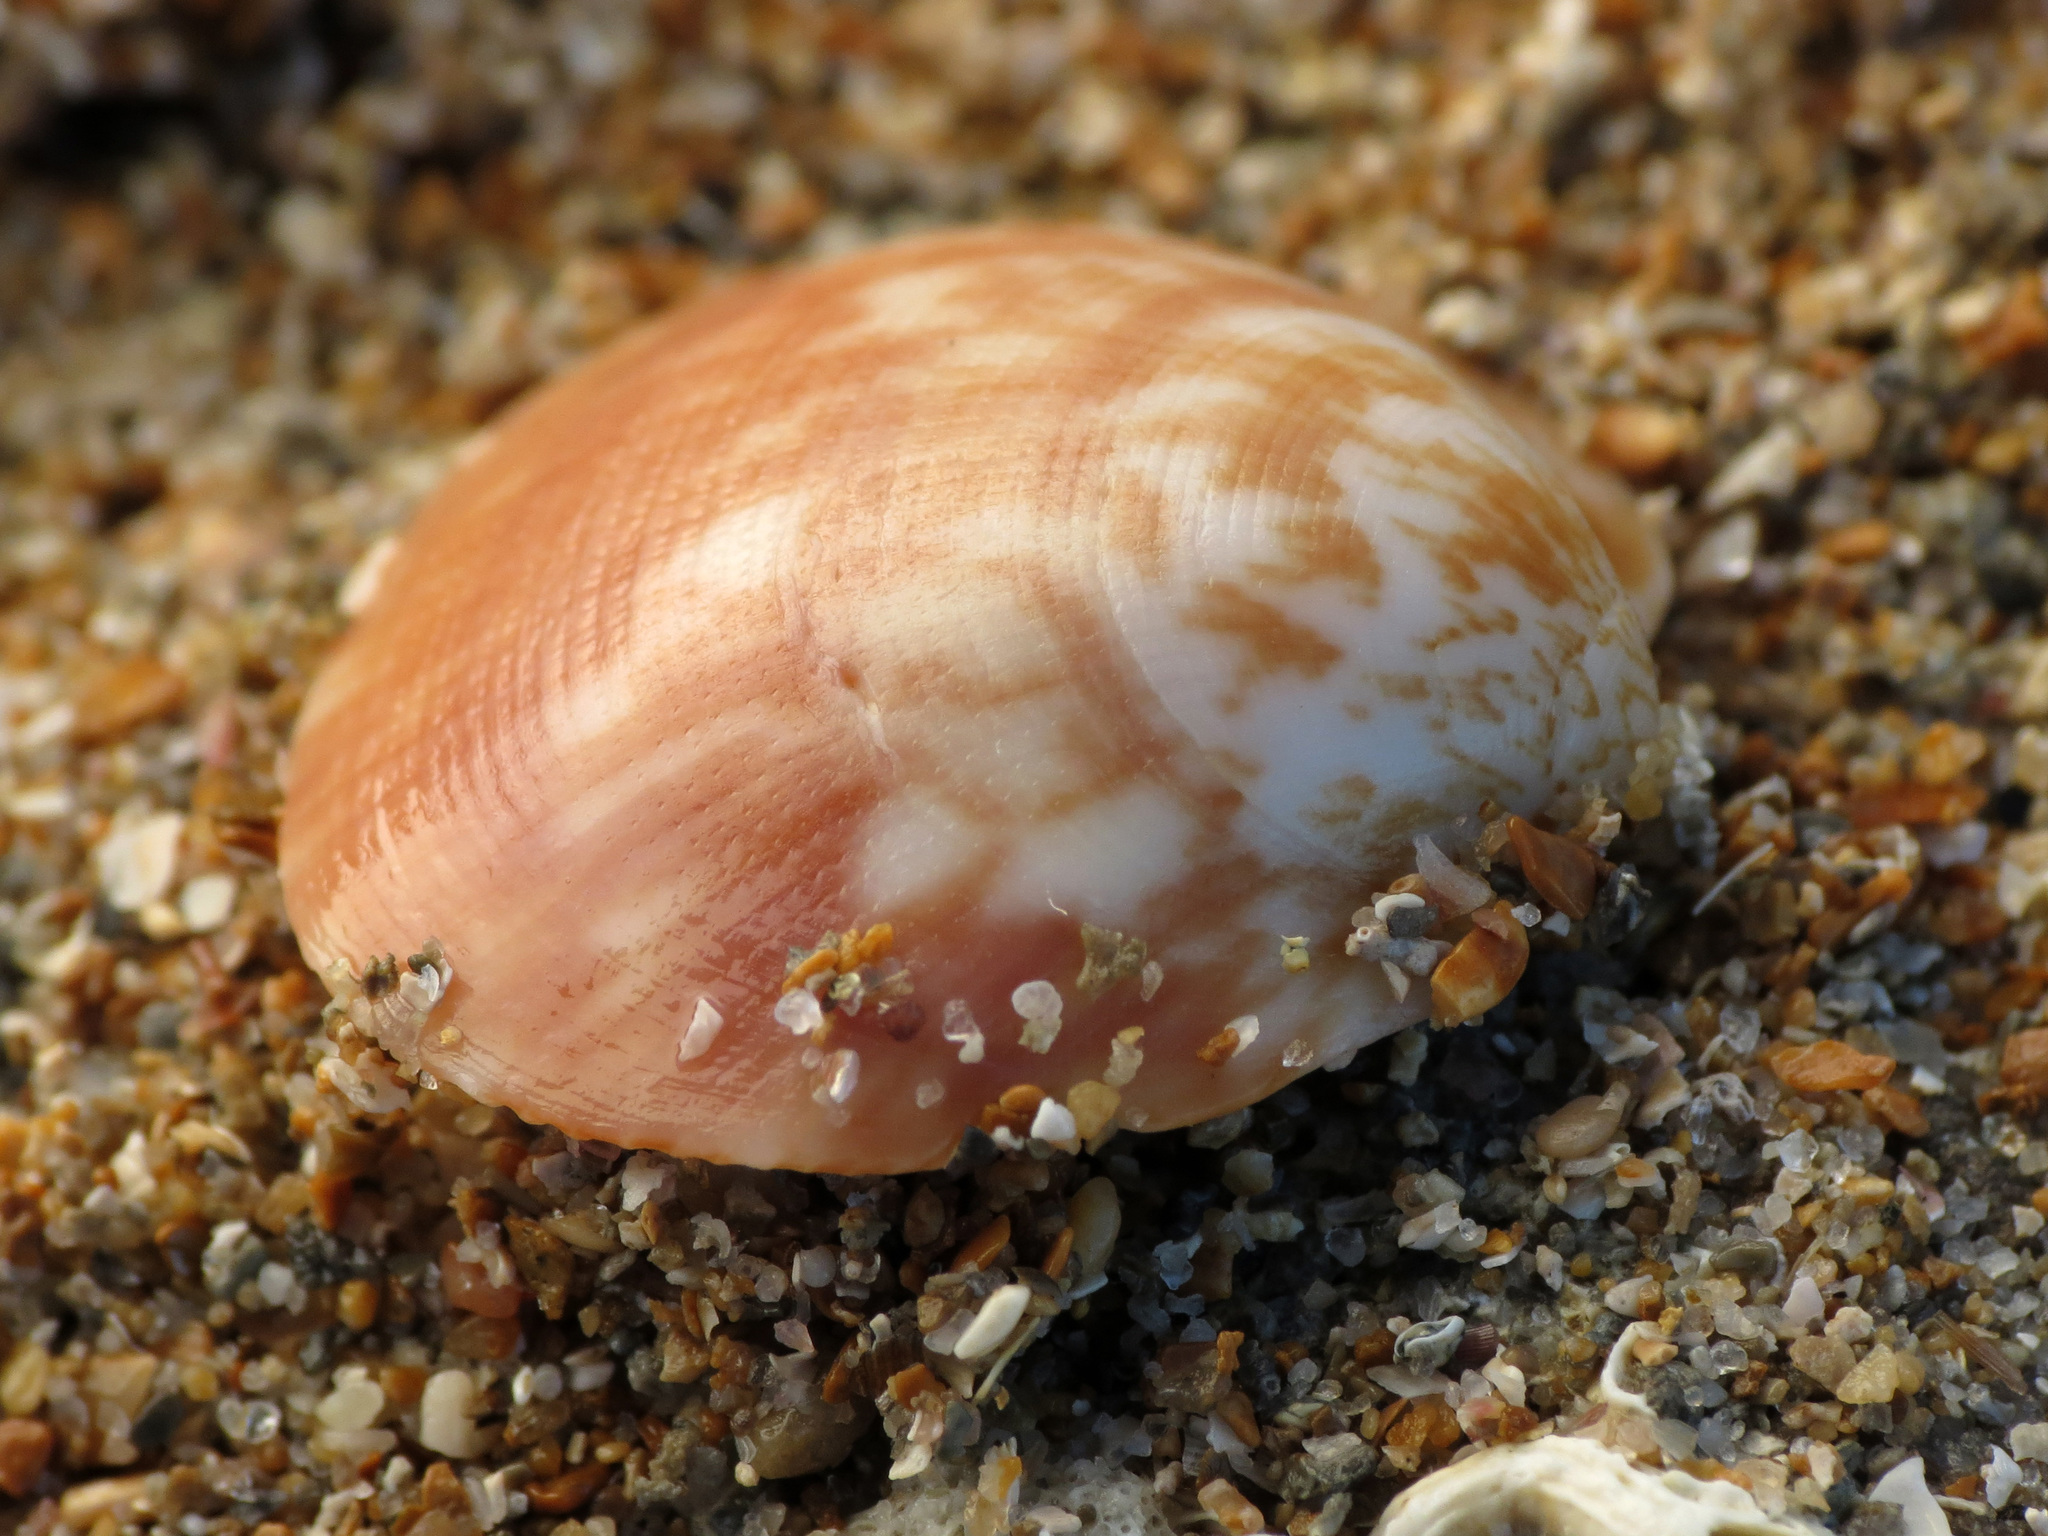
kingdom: Animalia
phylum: Mollusca
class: Bivalvia
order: Arcida
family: Glycymerididae
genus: Glycymeris
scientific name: Glycymeris glycymeris
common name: Dog-cockle
